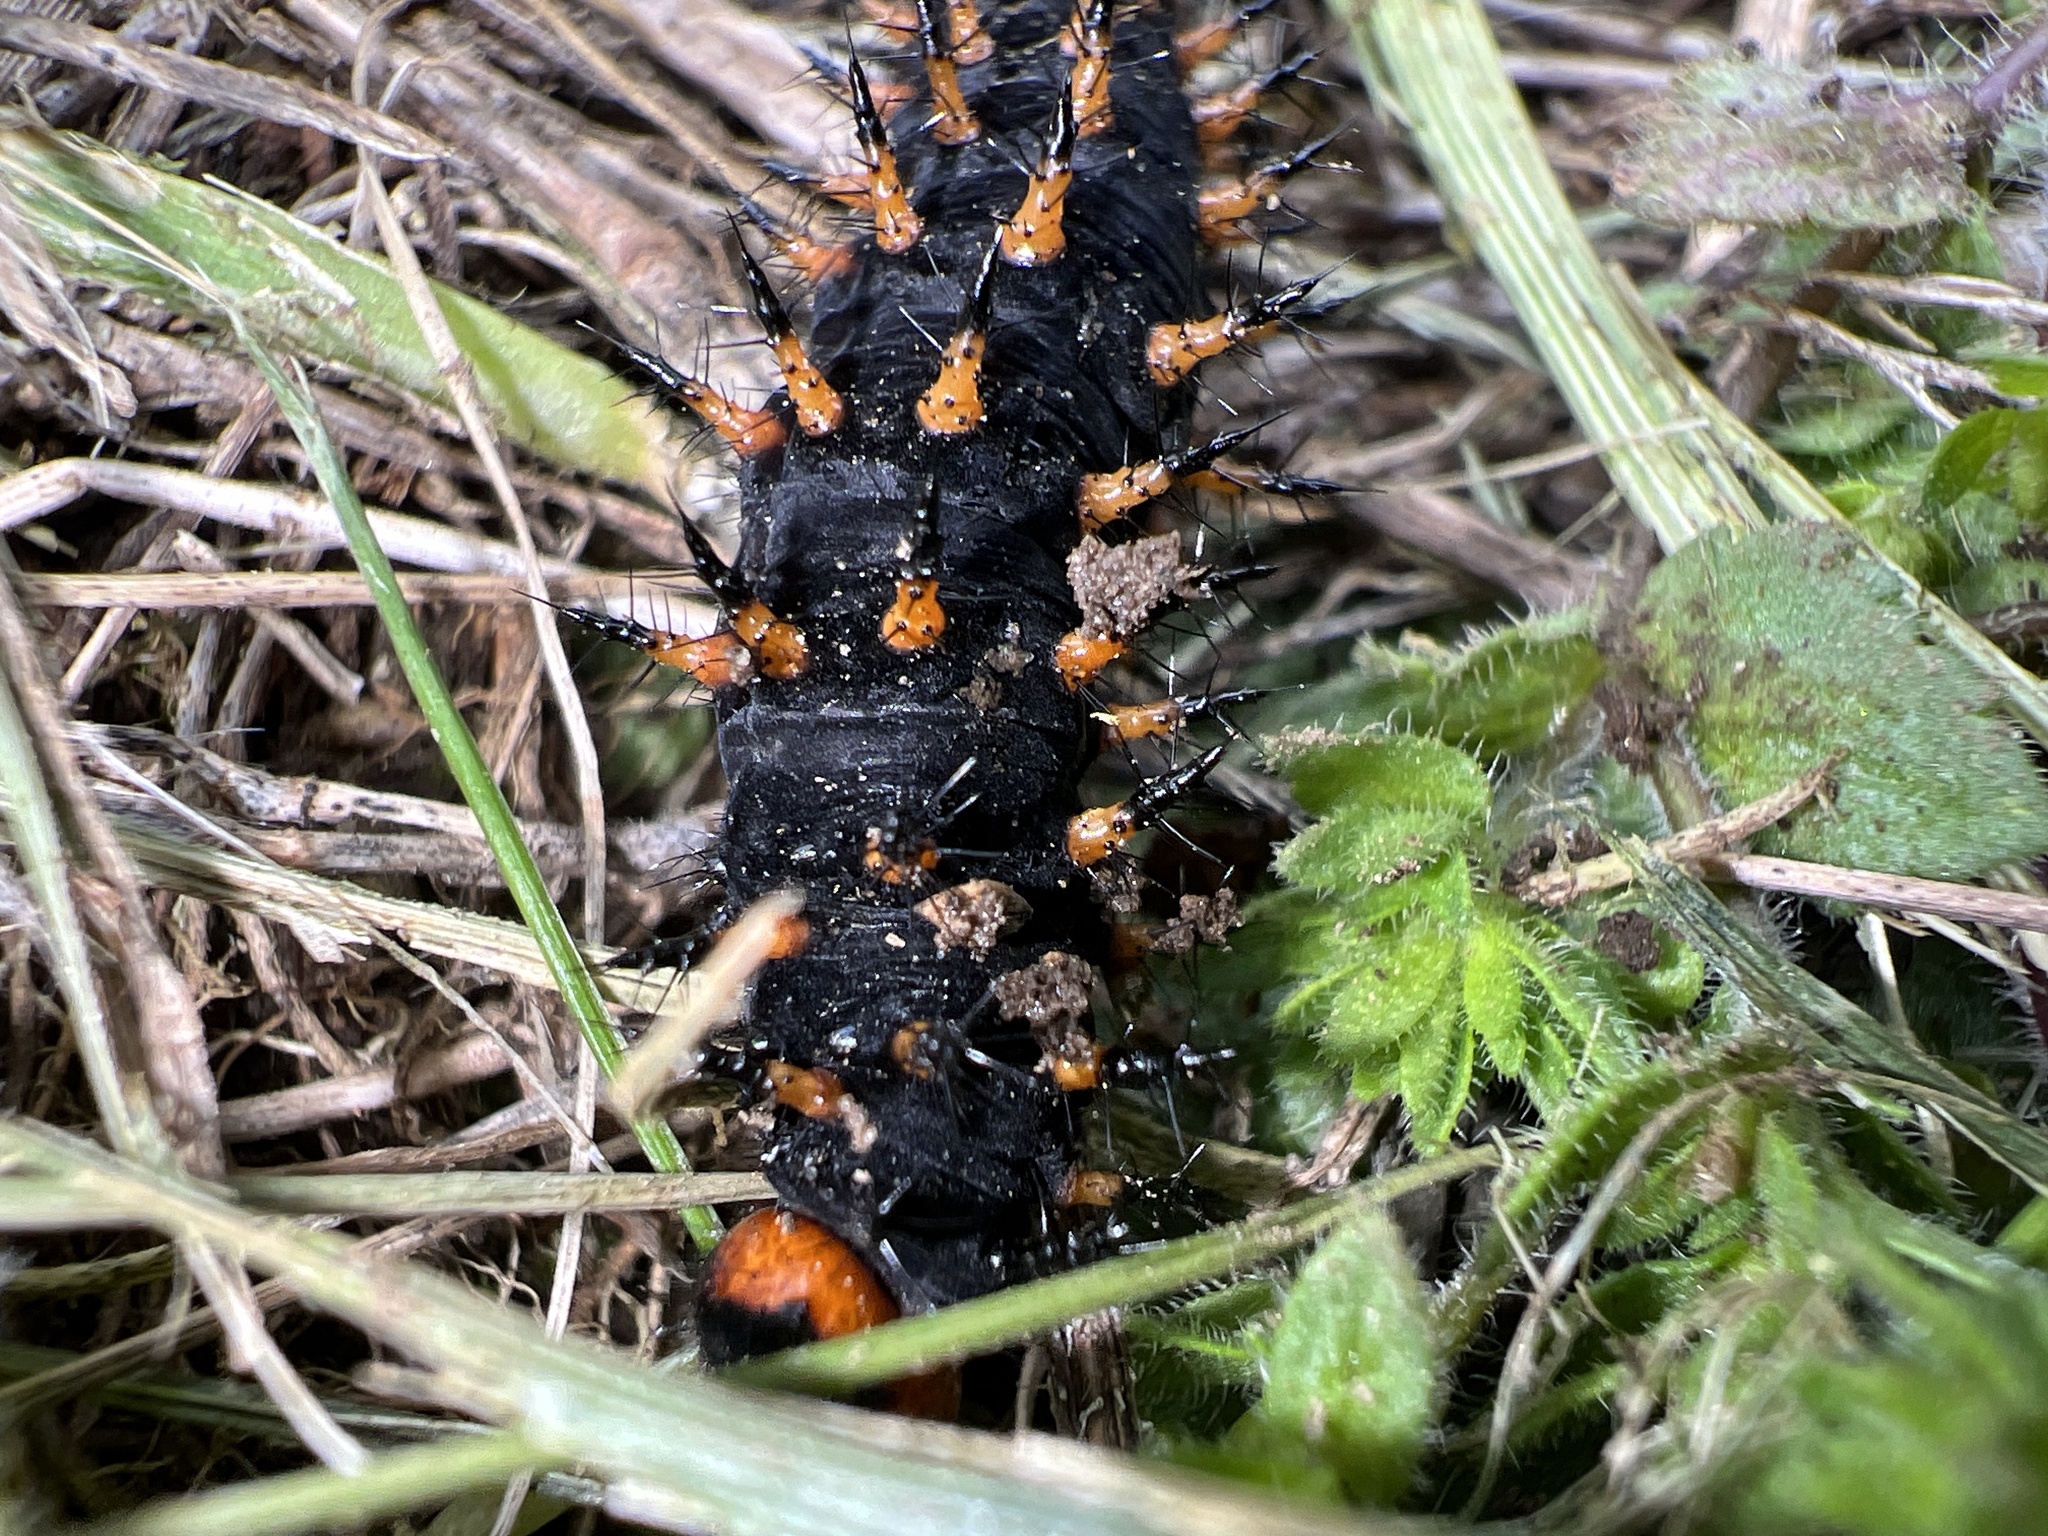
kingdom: Animalia
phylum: Arthropoda
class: Insecta
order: Lepidoptera
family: Nymphalidae
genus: Speyeria
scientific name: Speyeria cybele
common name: Great spangled fritillary
